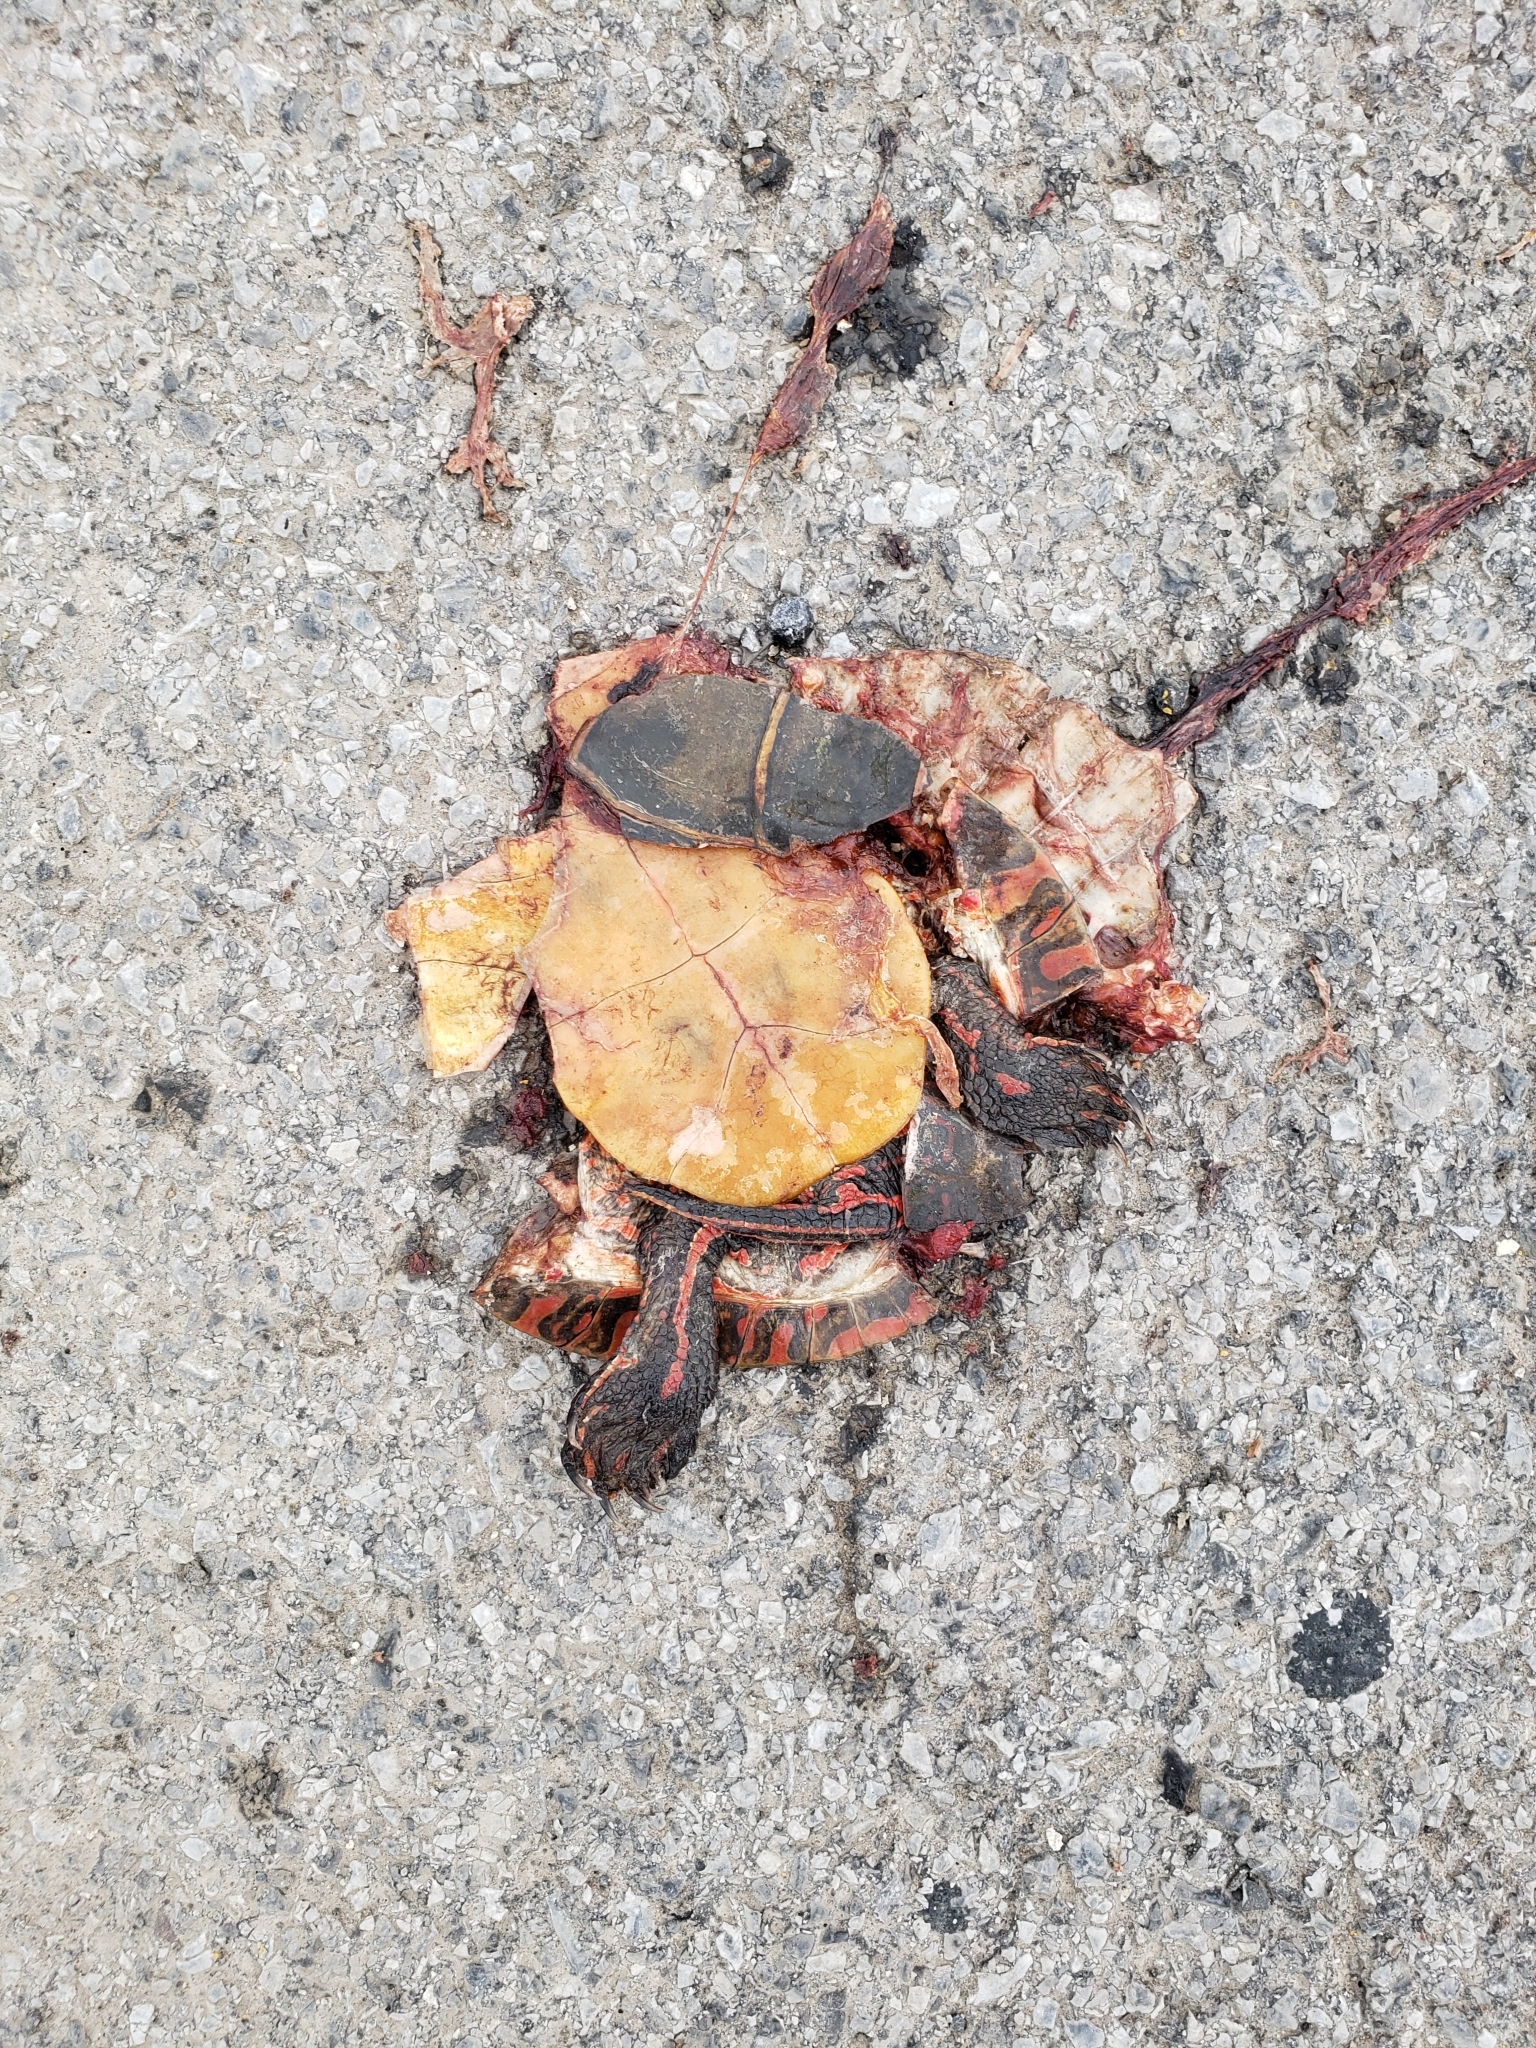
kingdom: Animalia
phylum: Chordata
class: Testudines
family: Emydidae
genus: Chrysemys
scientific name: Chrysemys picta
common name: Painted turtle
